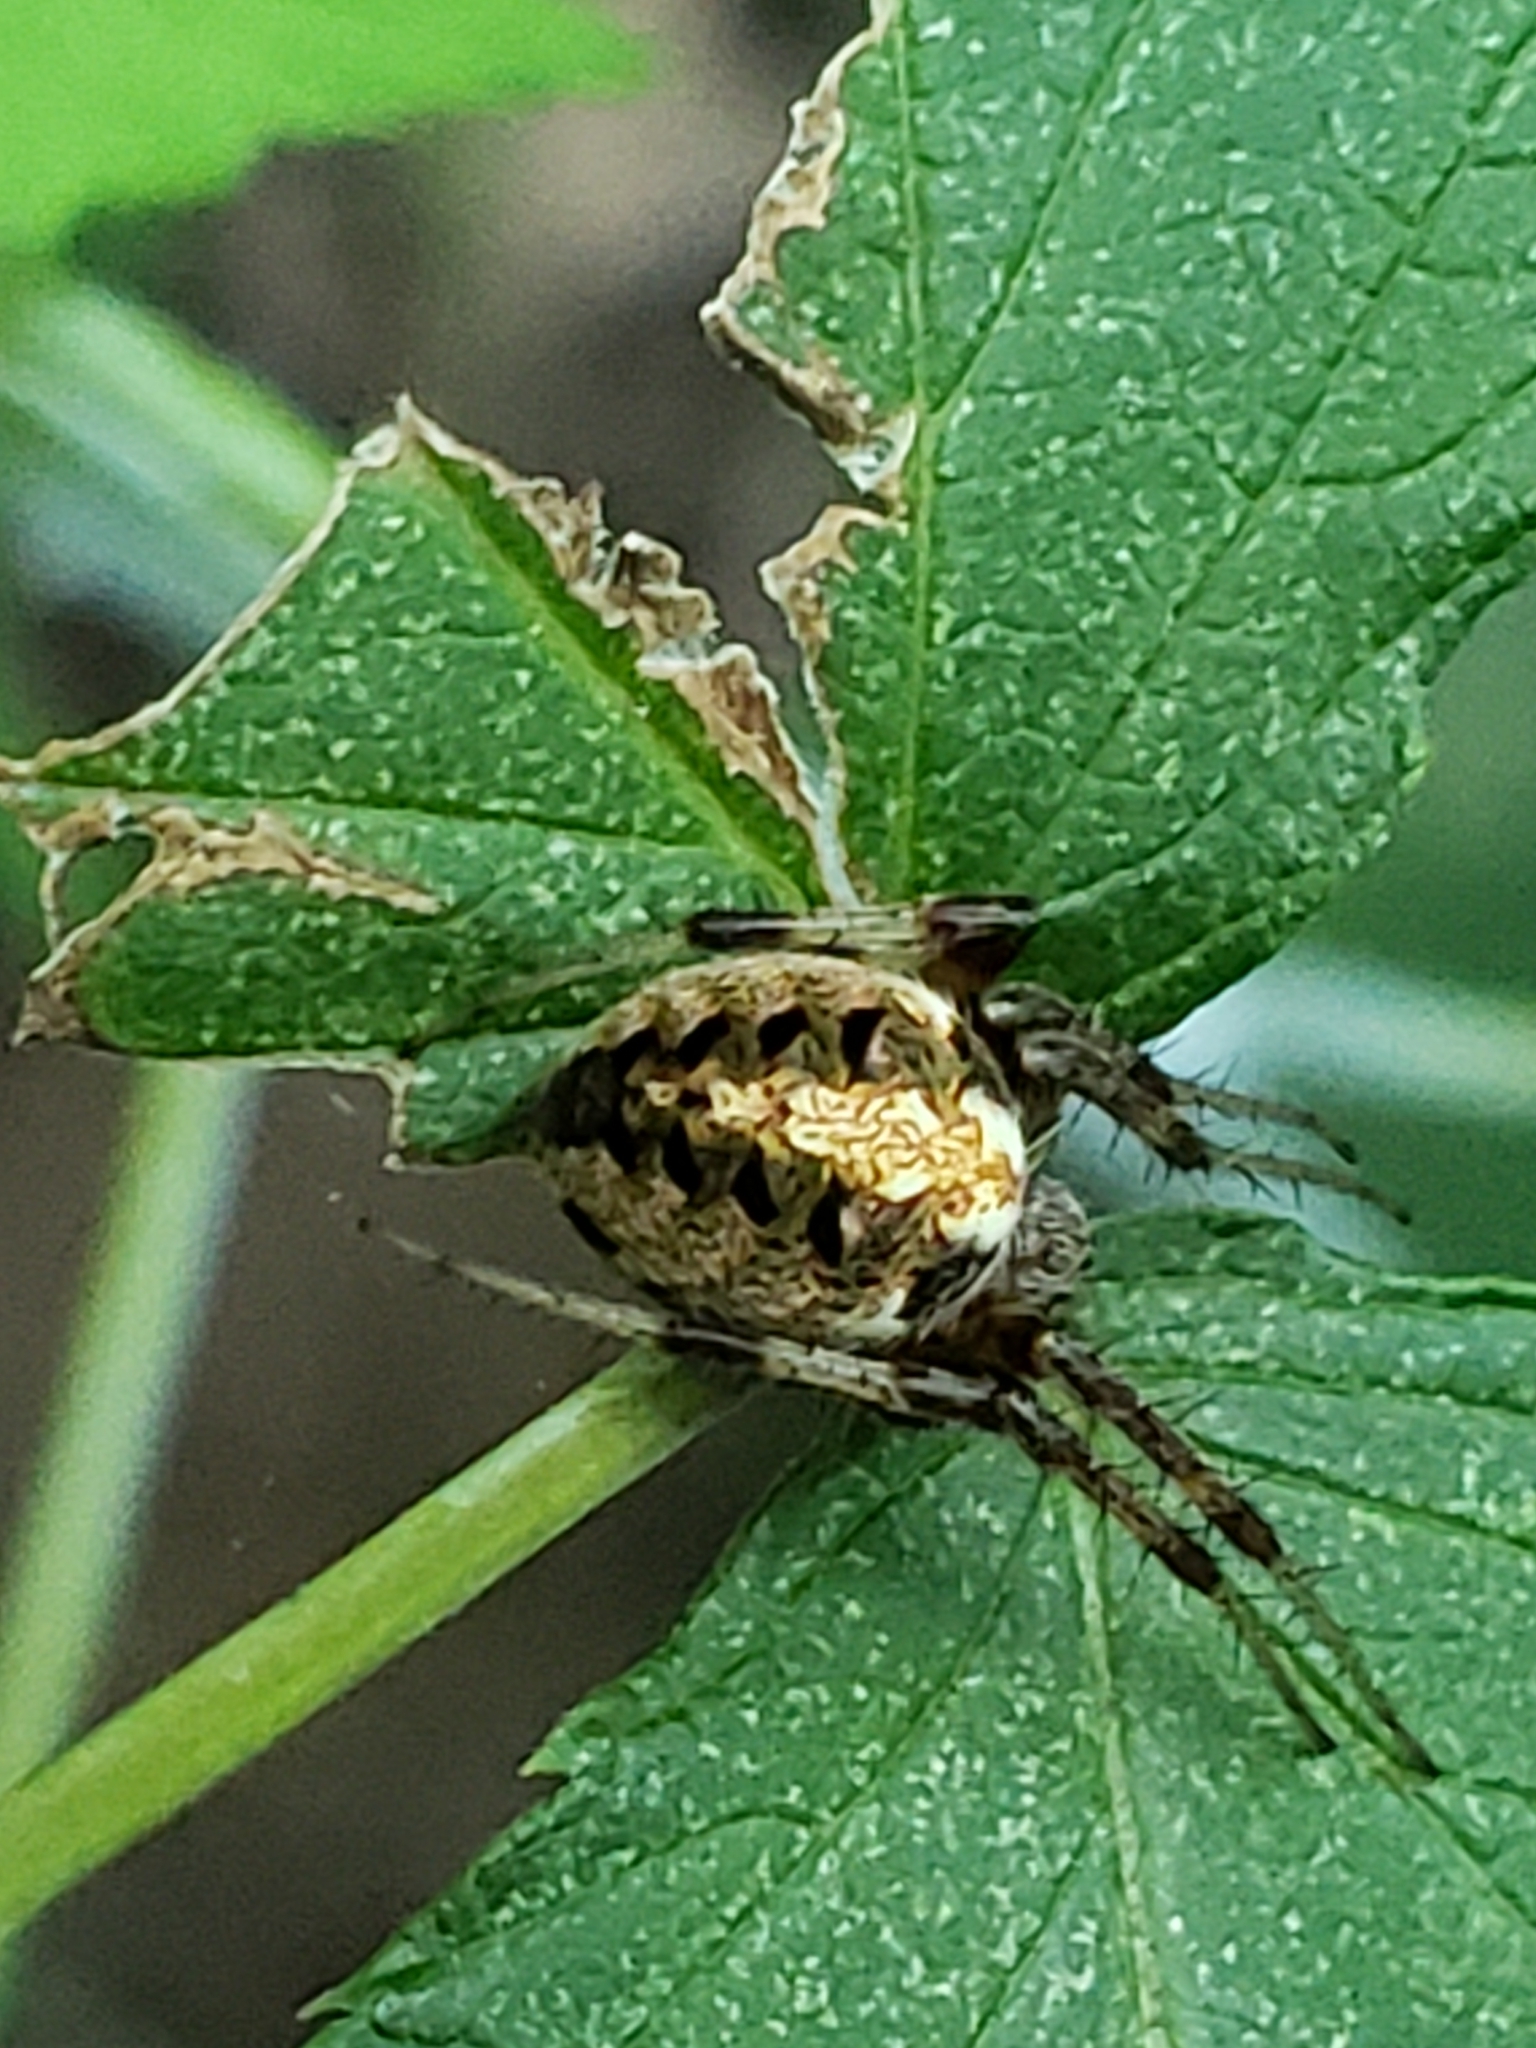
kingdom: Animalia
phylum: Arthropoda
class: Arachnida
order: Araneae
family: Araneidae
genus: Neoscona
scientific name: Neoscona arabesca
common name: Orb weavers
